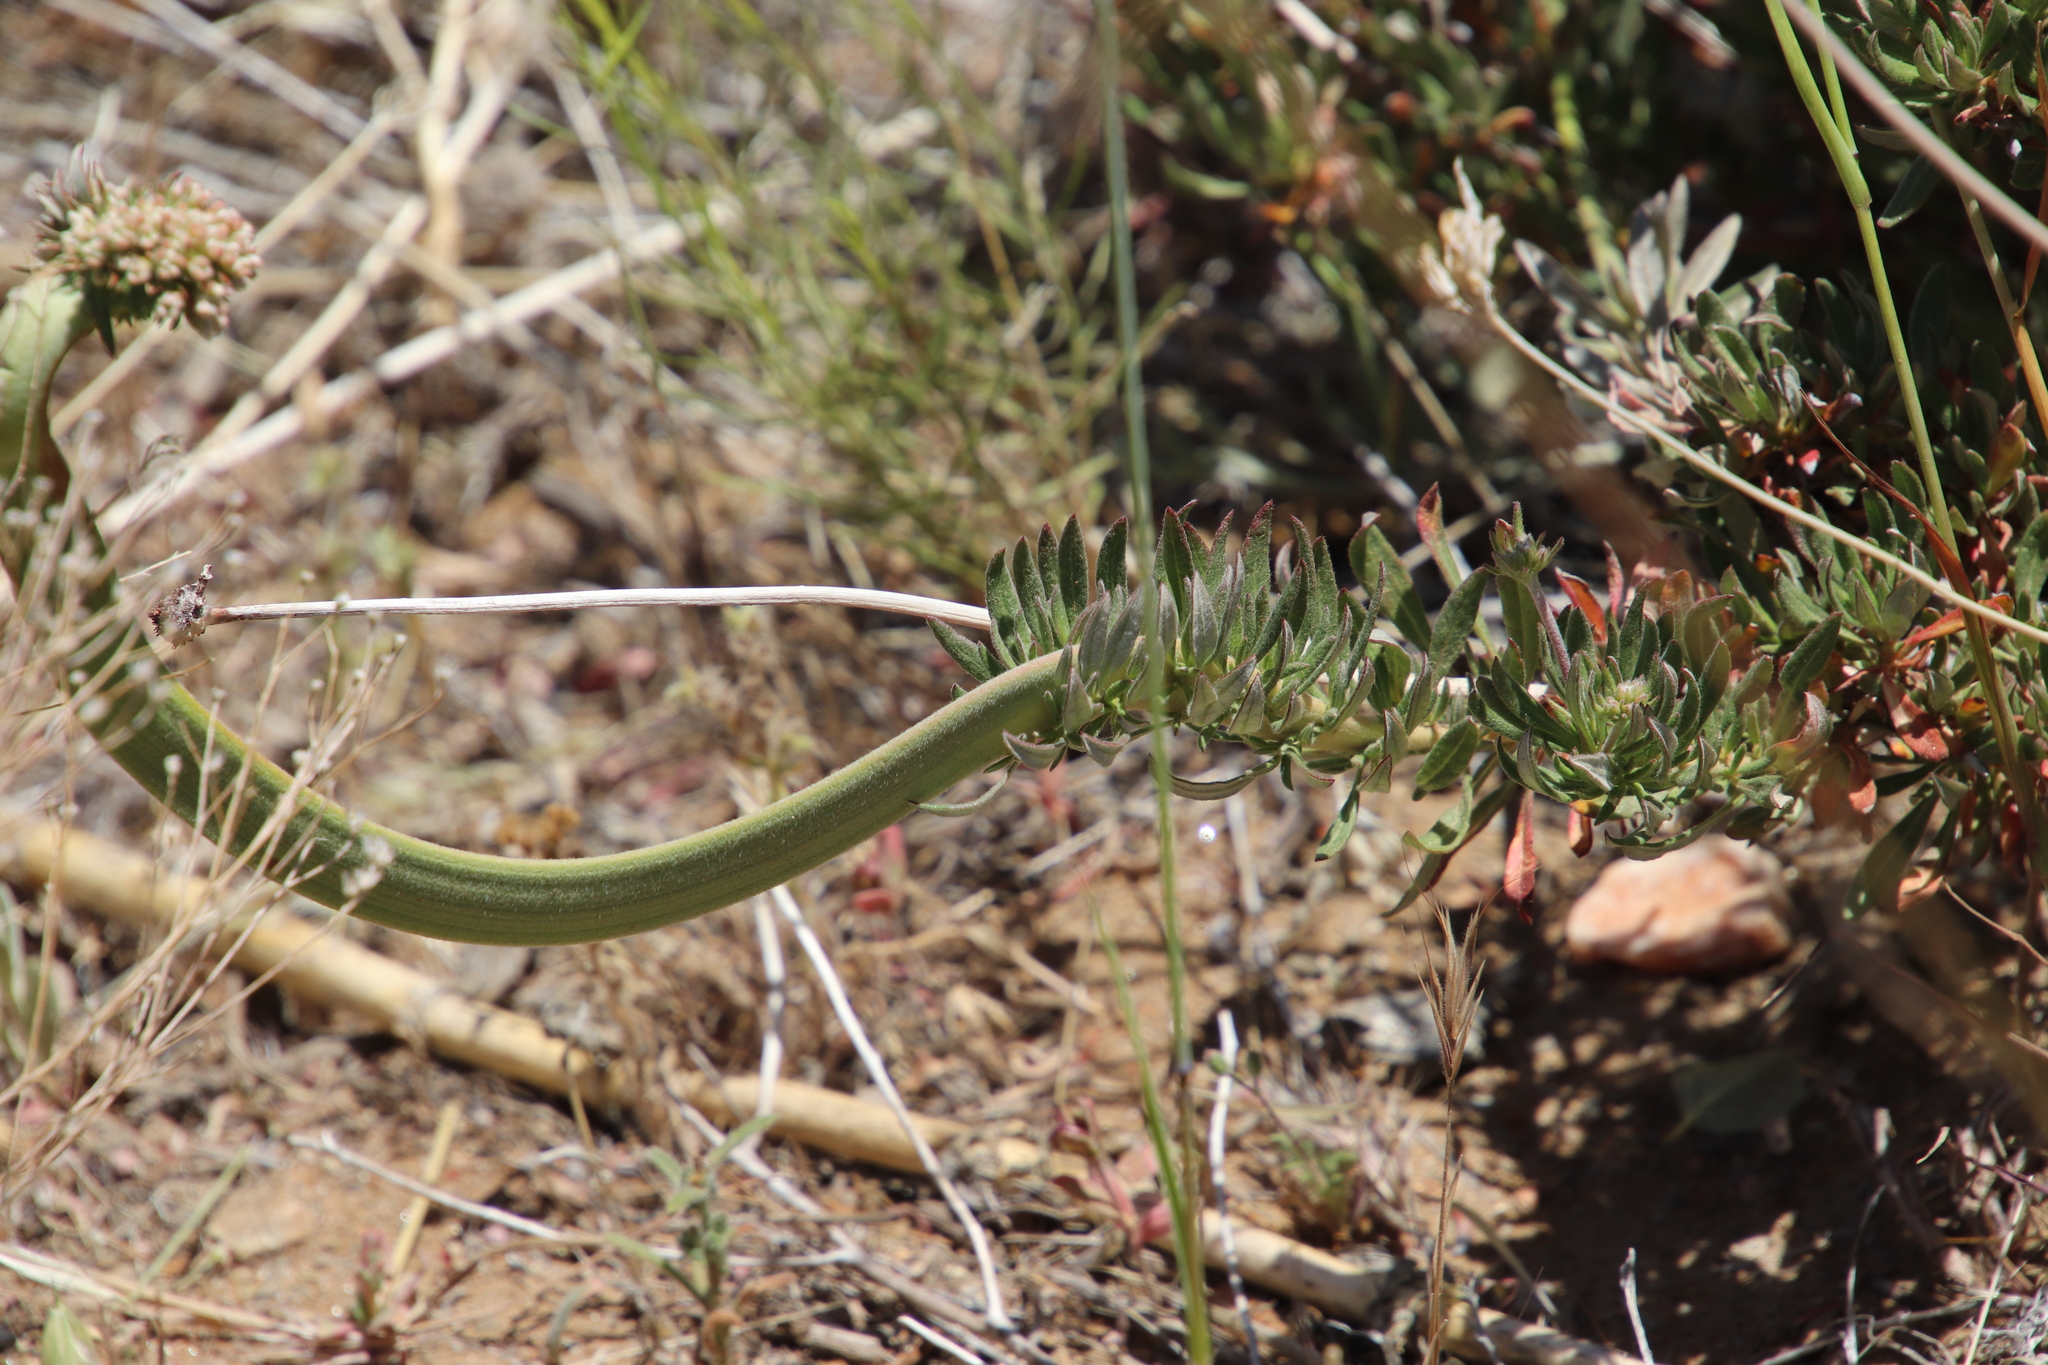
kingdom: Plantae
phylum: Tracheophyta
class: Magnoliopsida
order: Caryophyllales
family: Polygonaceae
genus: Eriogonum
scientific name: Eriogonum fasciculatum
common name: California wild buckwheat
